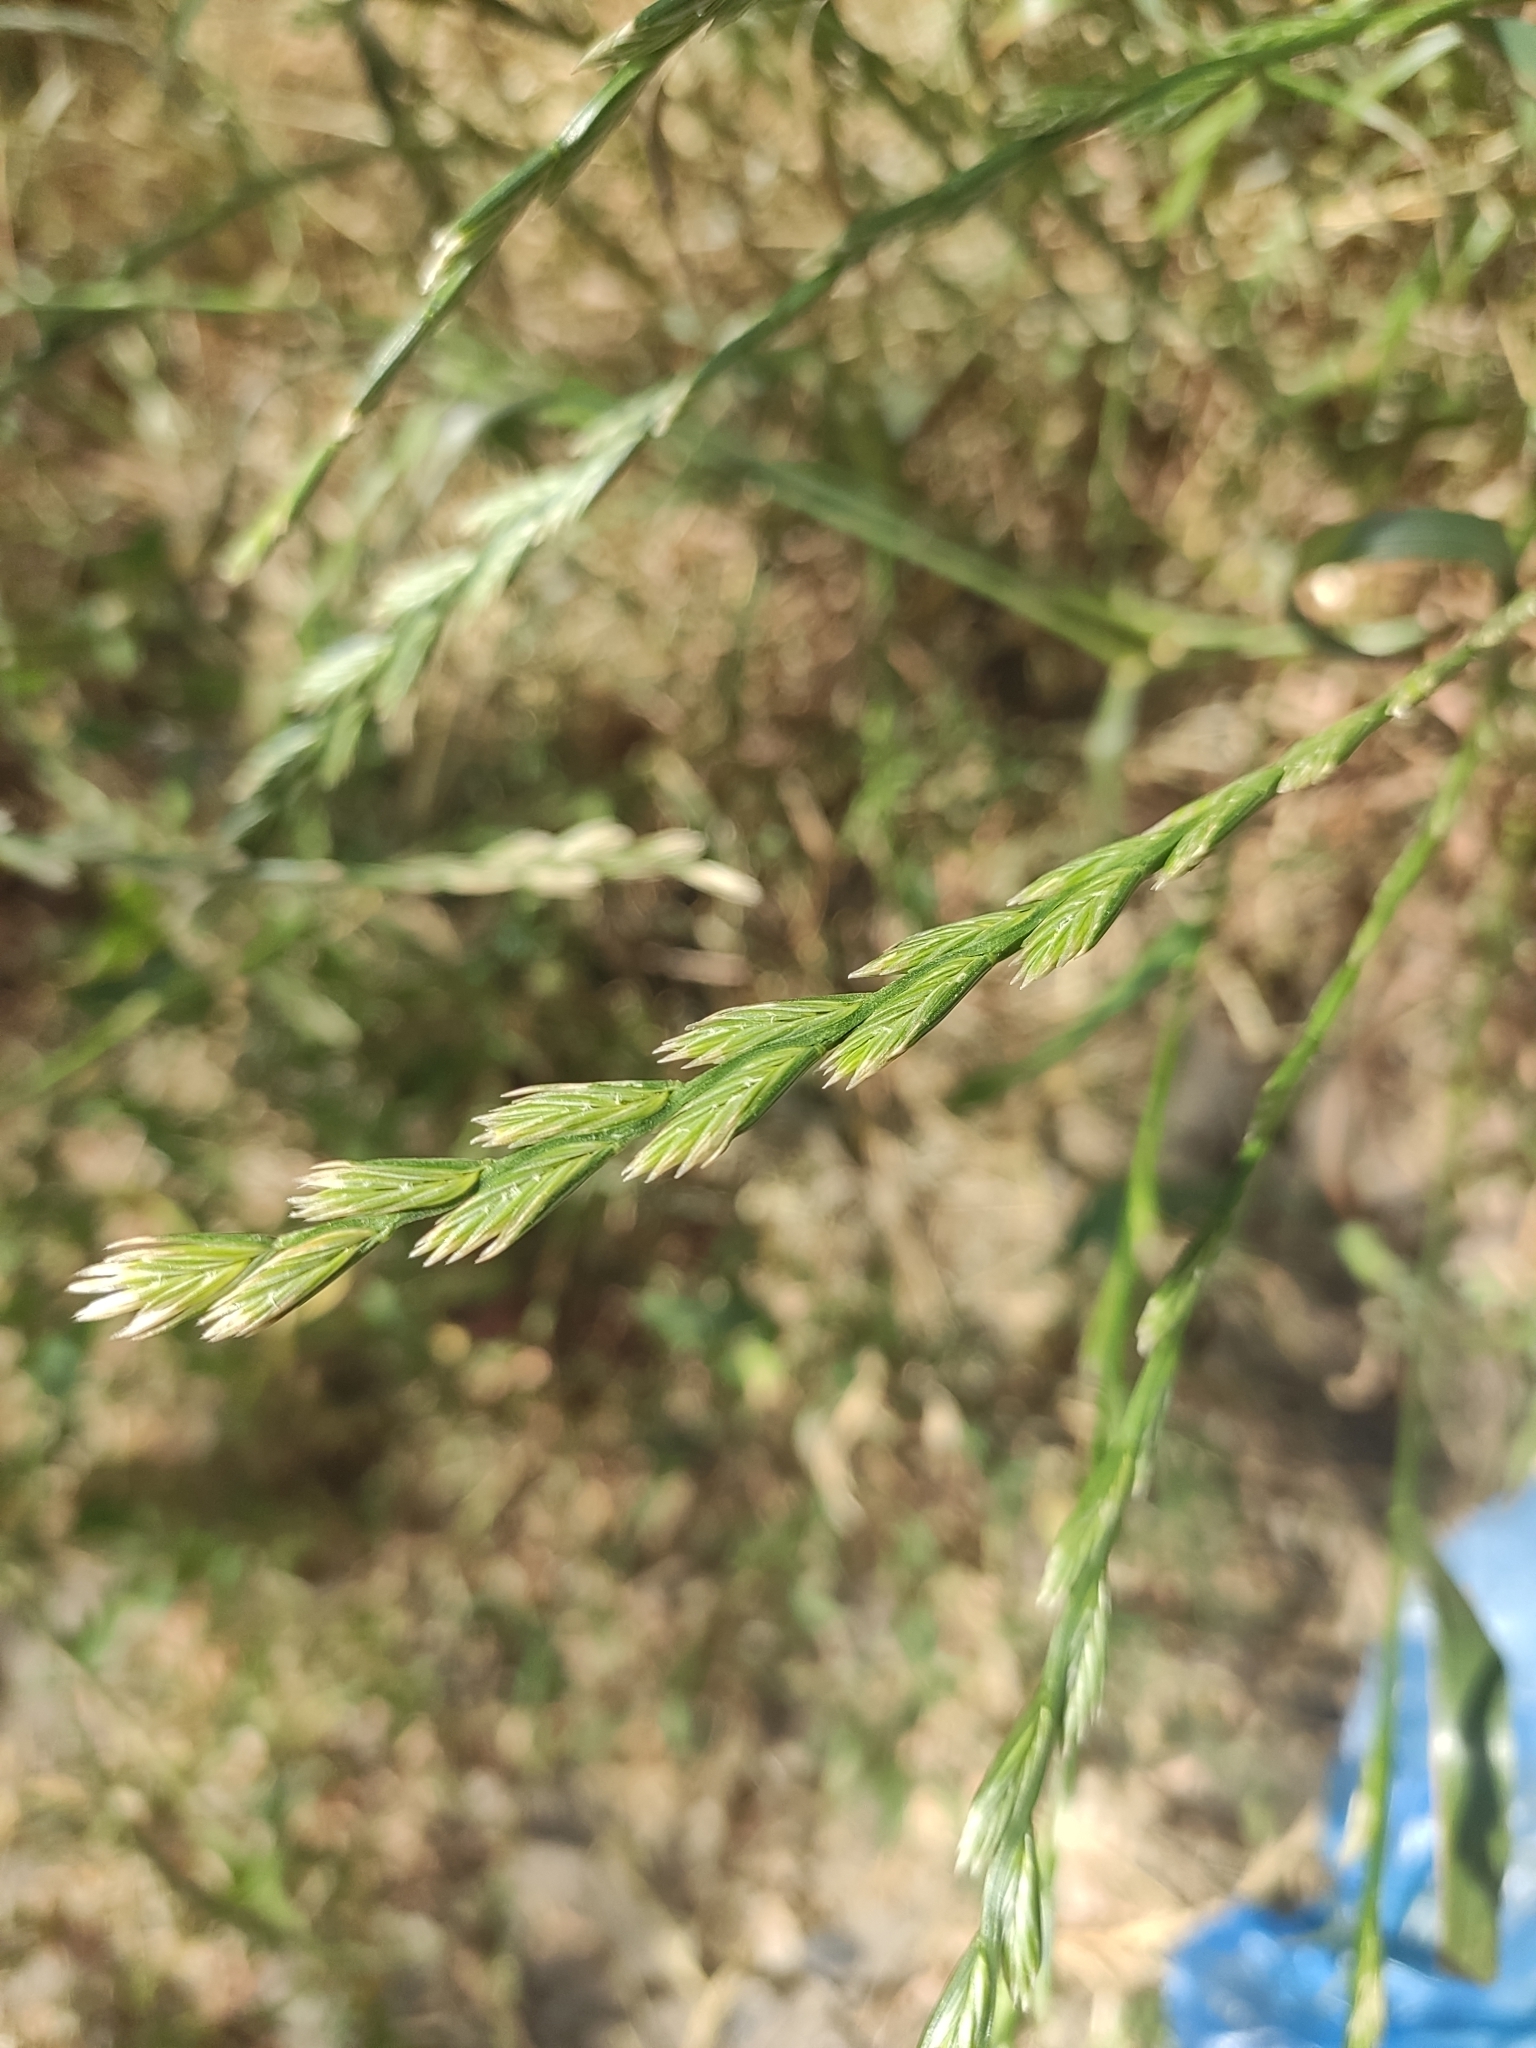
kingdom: Plantae
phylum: Tracheophyta
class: Liliopsida
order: Poales
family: Poaceae
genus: Lolium
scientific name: Lolium perenne
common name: Perennial ryegrass
